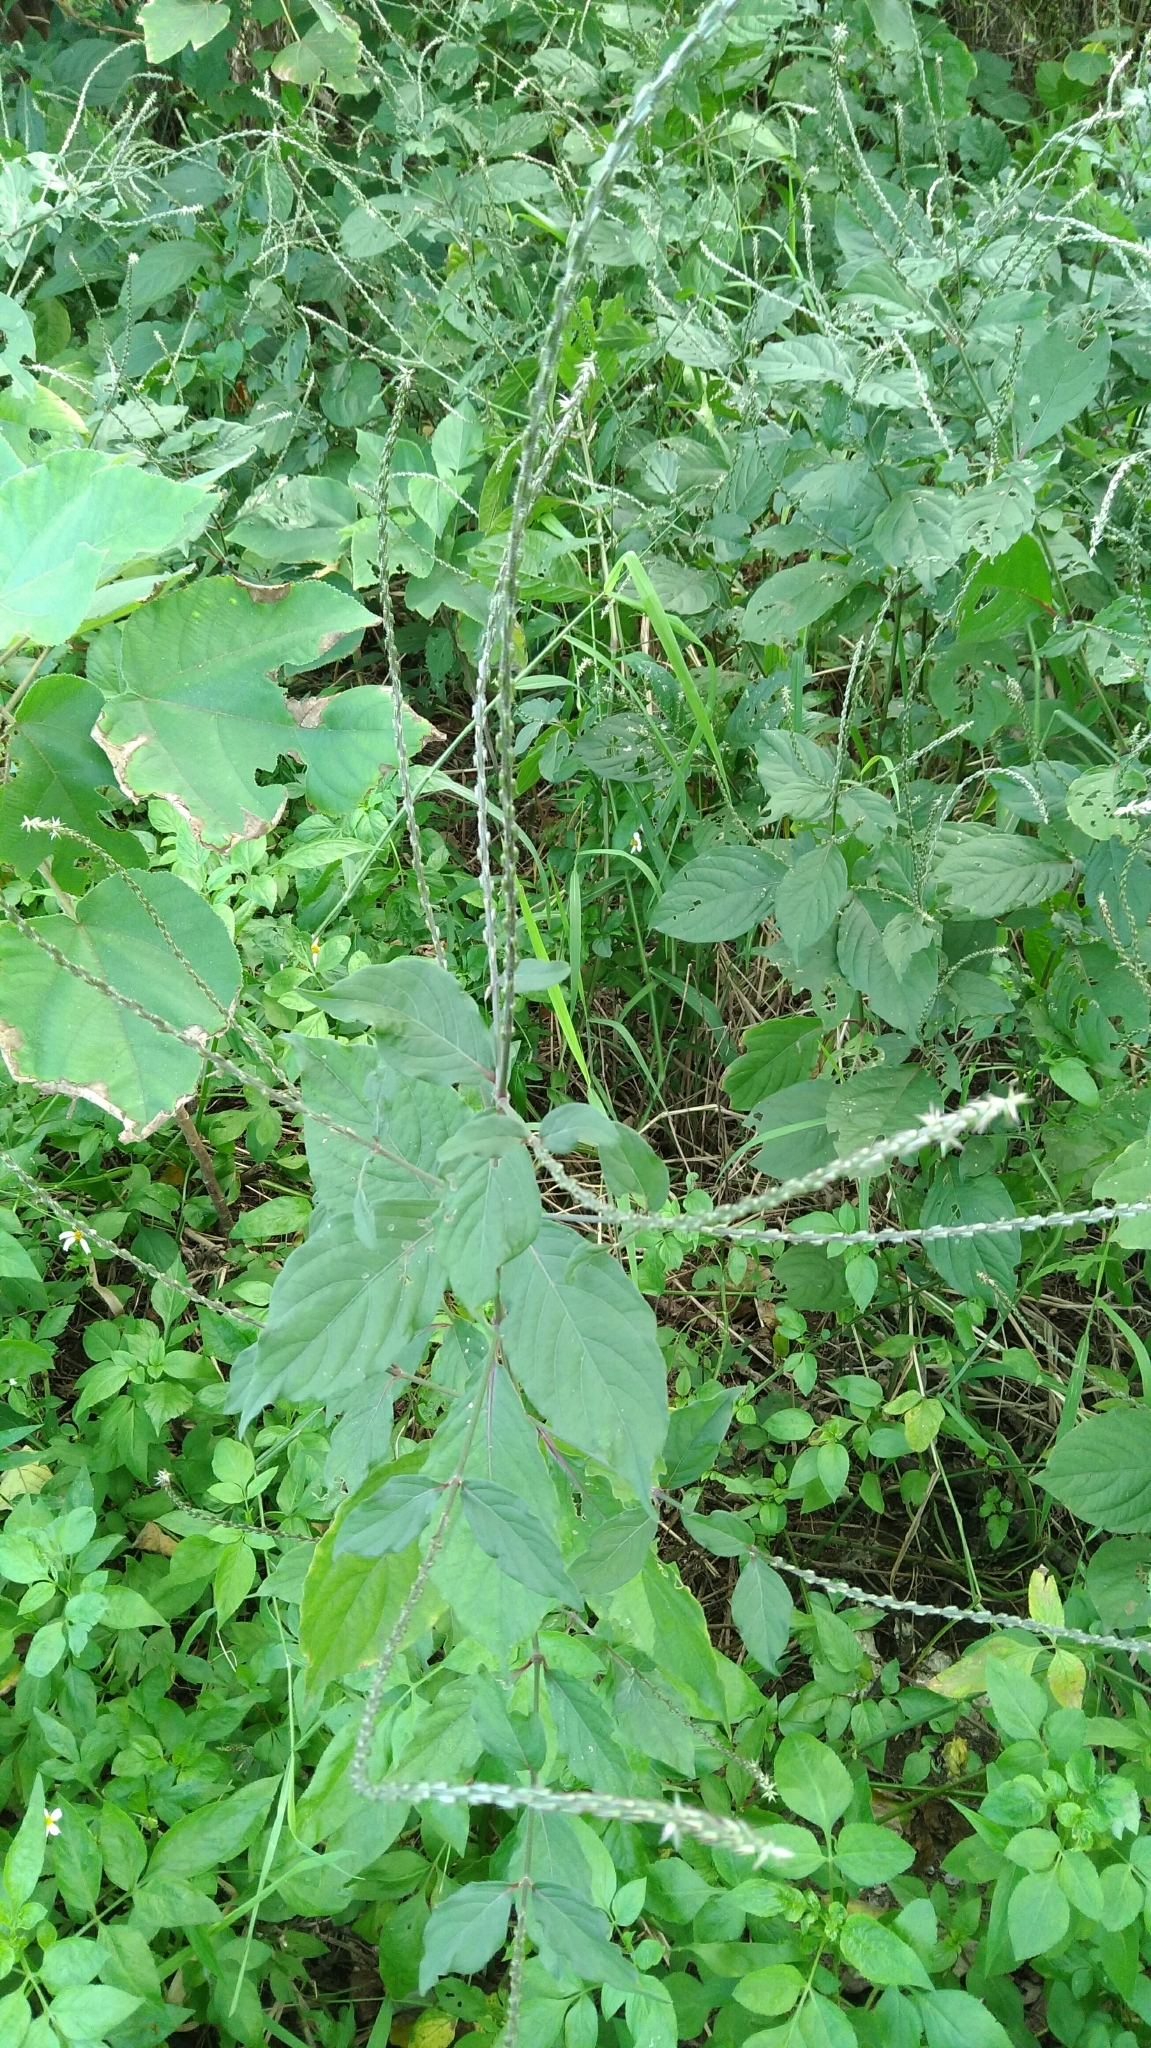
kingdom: Plantae
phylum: Tracheophyta
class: Magnoliopsida
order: Caryophyllales
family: Amaranthaceae
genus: Achyranthes
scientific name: Achyranthes aspera
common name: Devil's horsewhip
